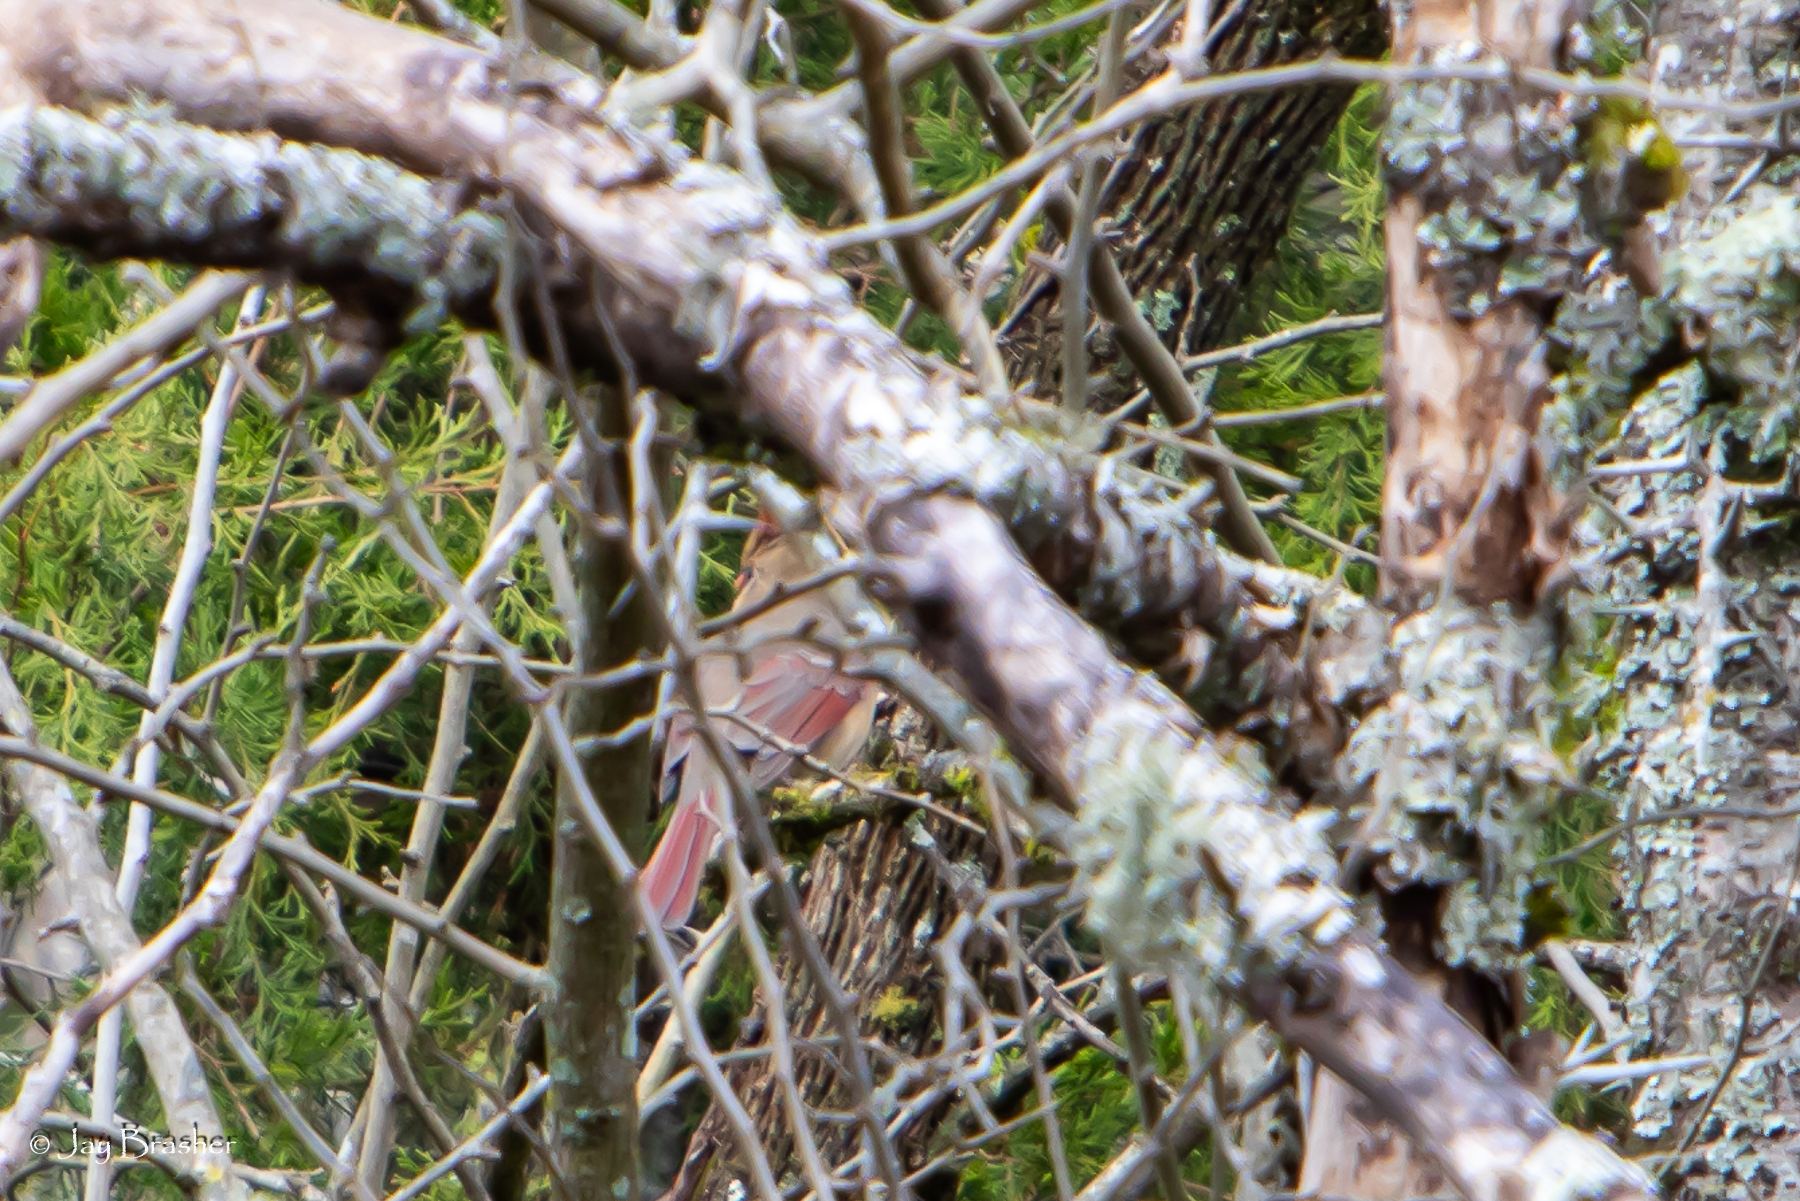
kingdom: Animalia
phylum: Chordata
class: Aves
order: Passeriformes
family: Cardinalidae
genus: Cardinalis
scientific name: Cardinalis cardinalis
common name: Northern cardinal
